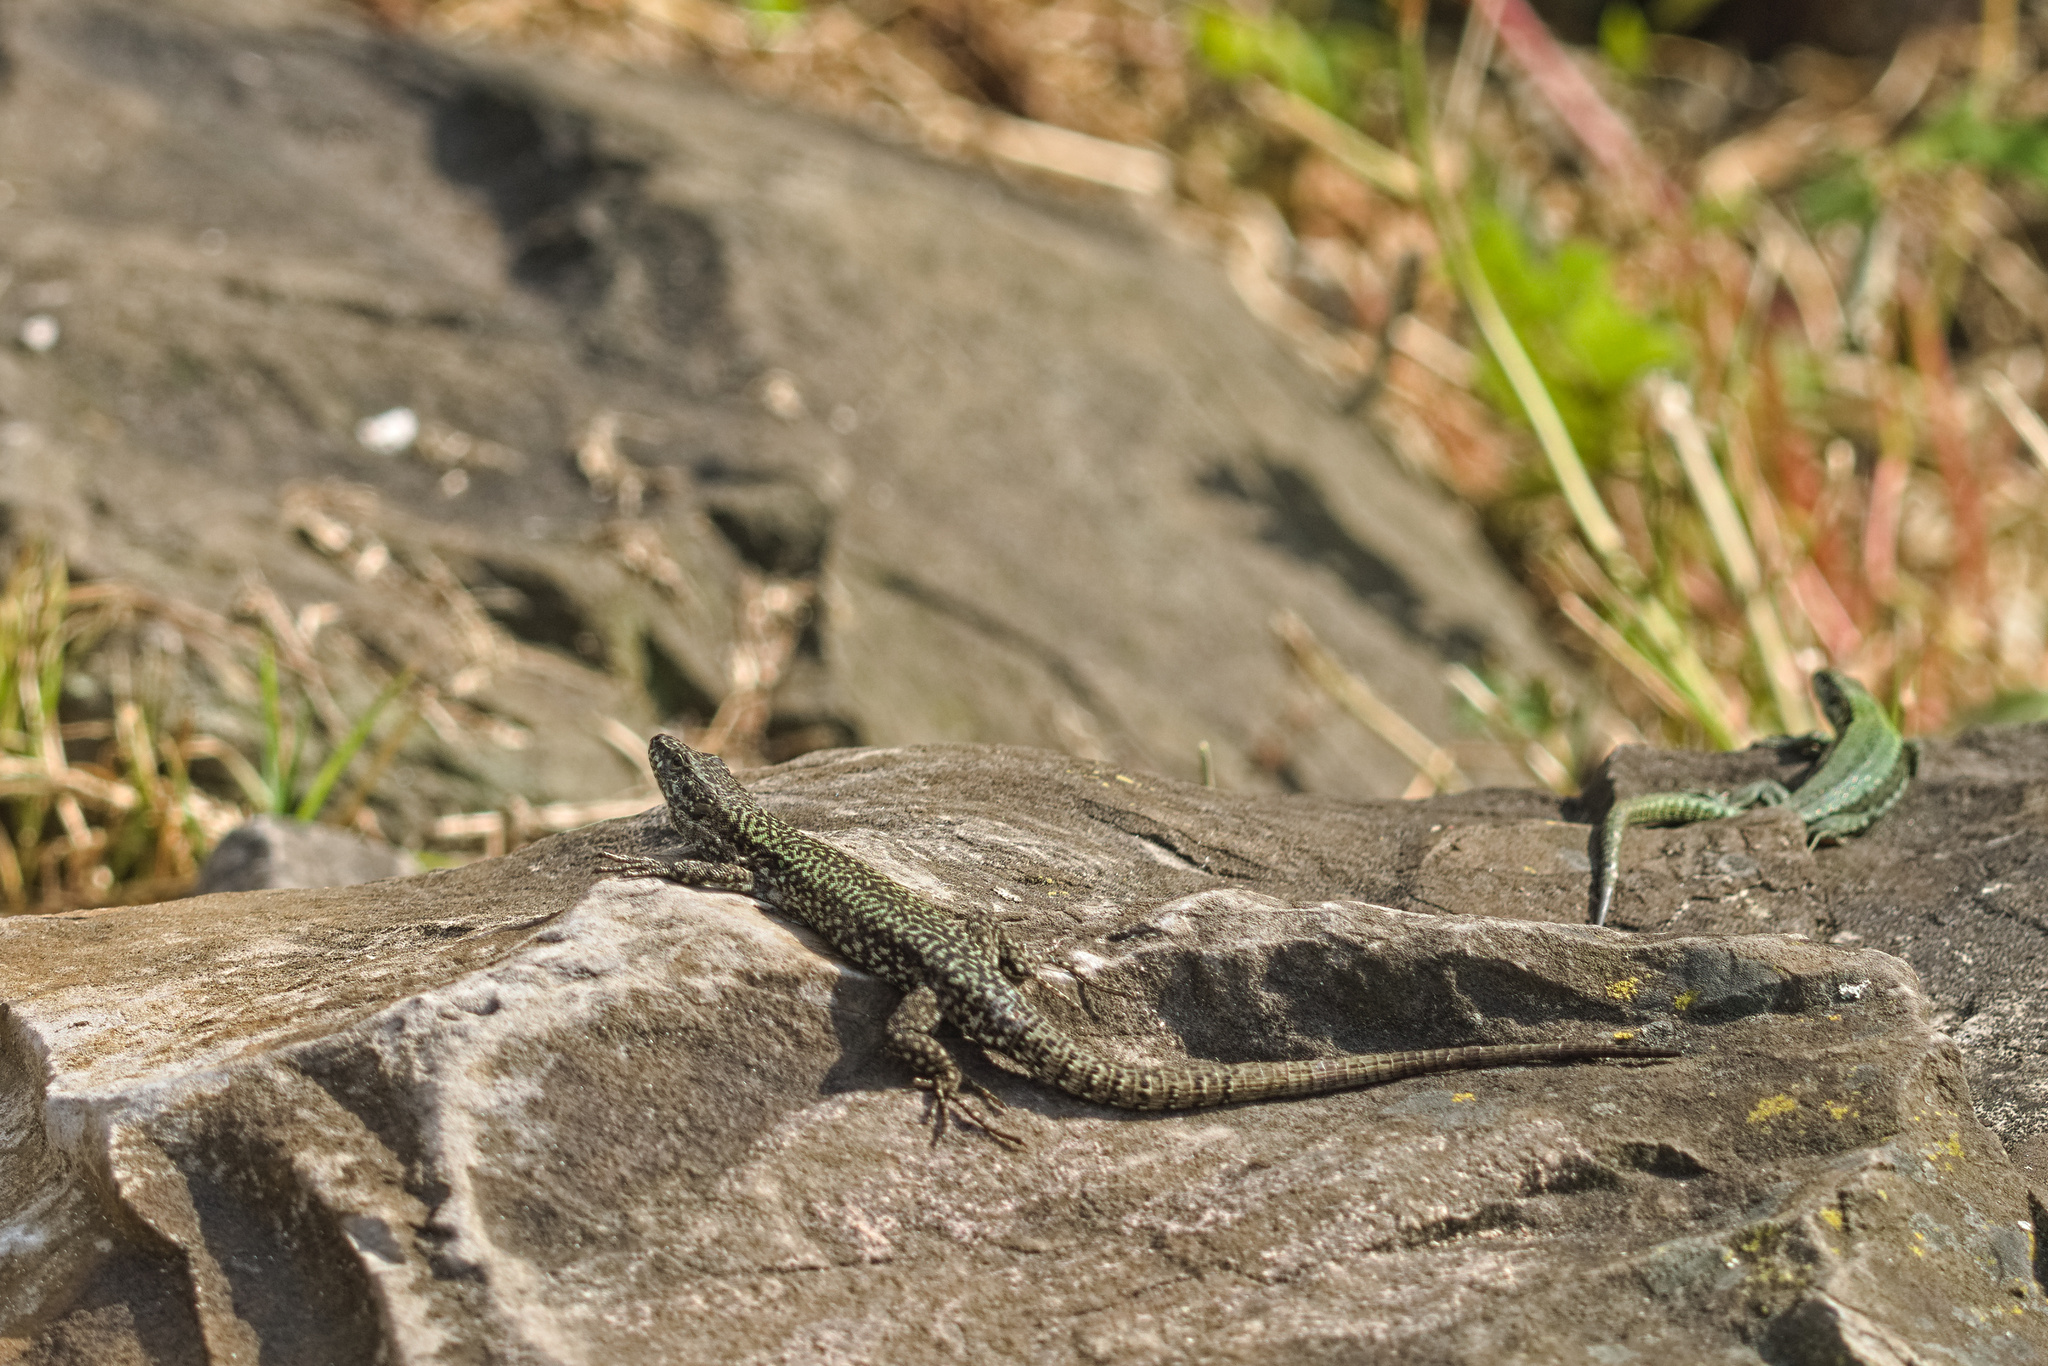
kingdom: Animalia
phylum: Chordata
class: Squamata
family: Lacertidae
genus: Podarcis
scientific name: Podarcis muralis
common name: Common wall lizard
